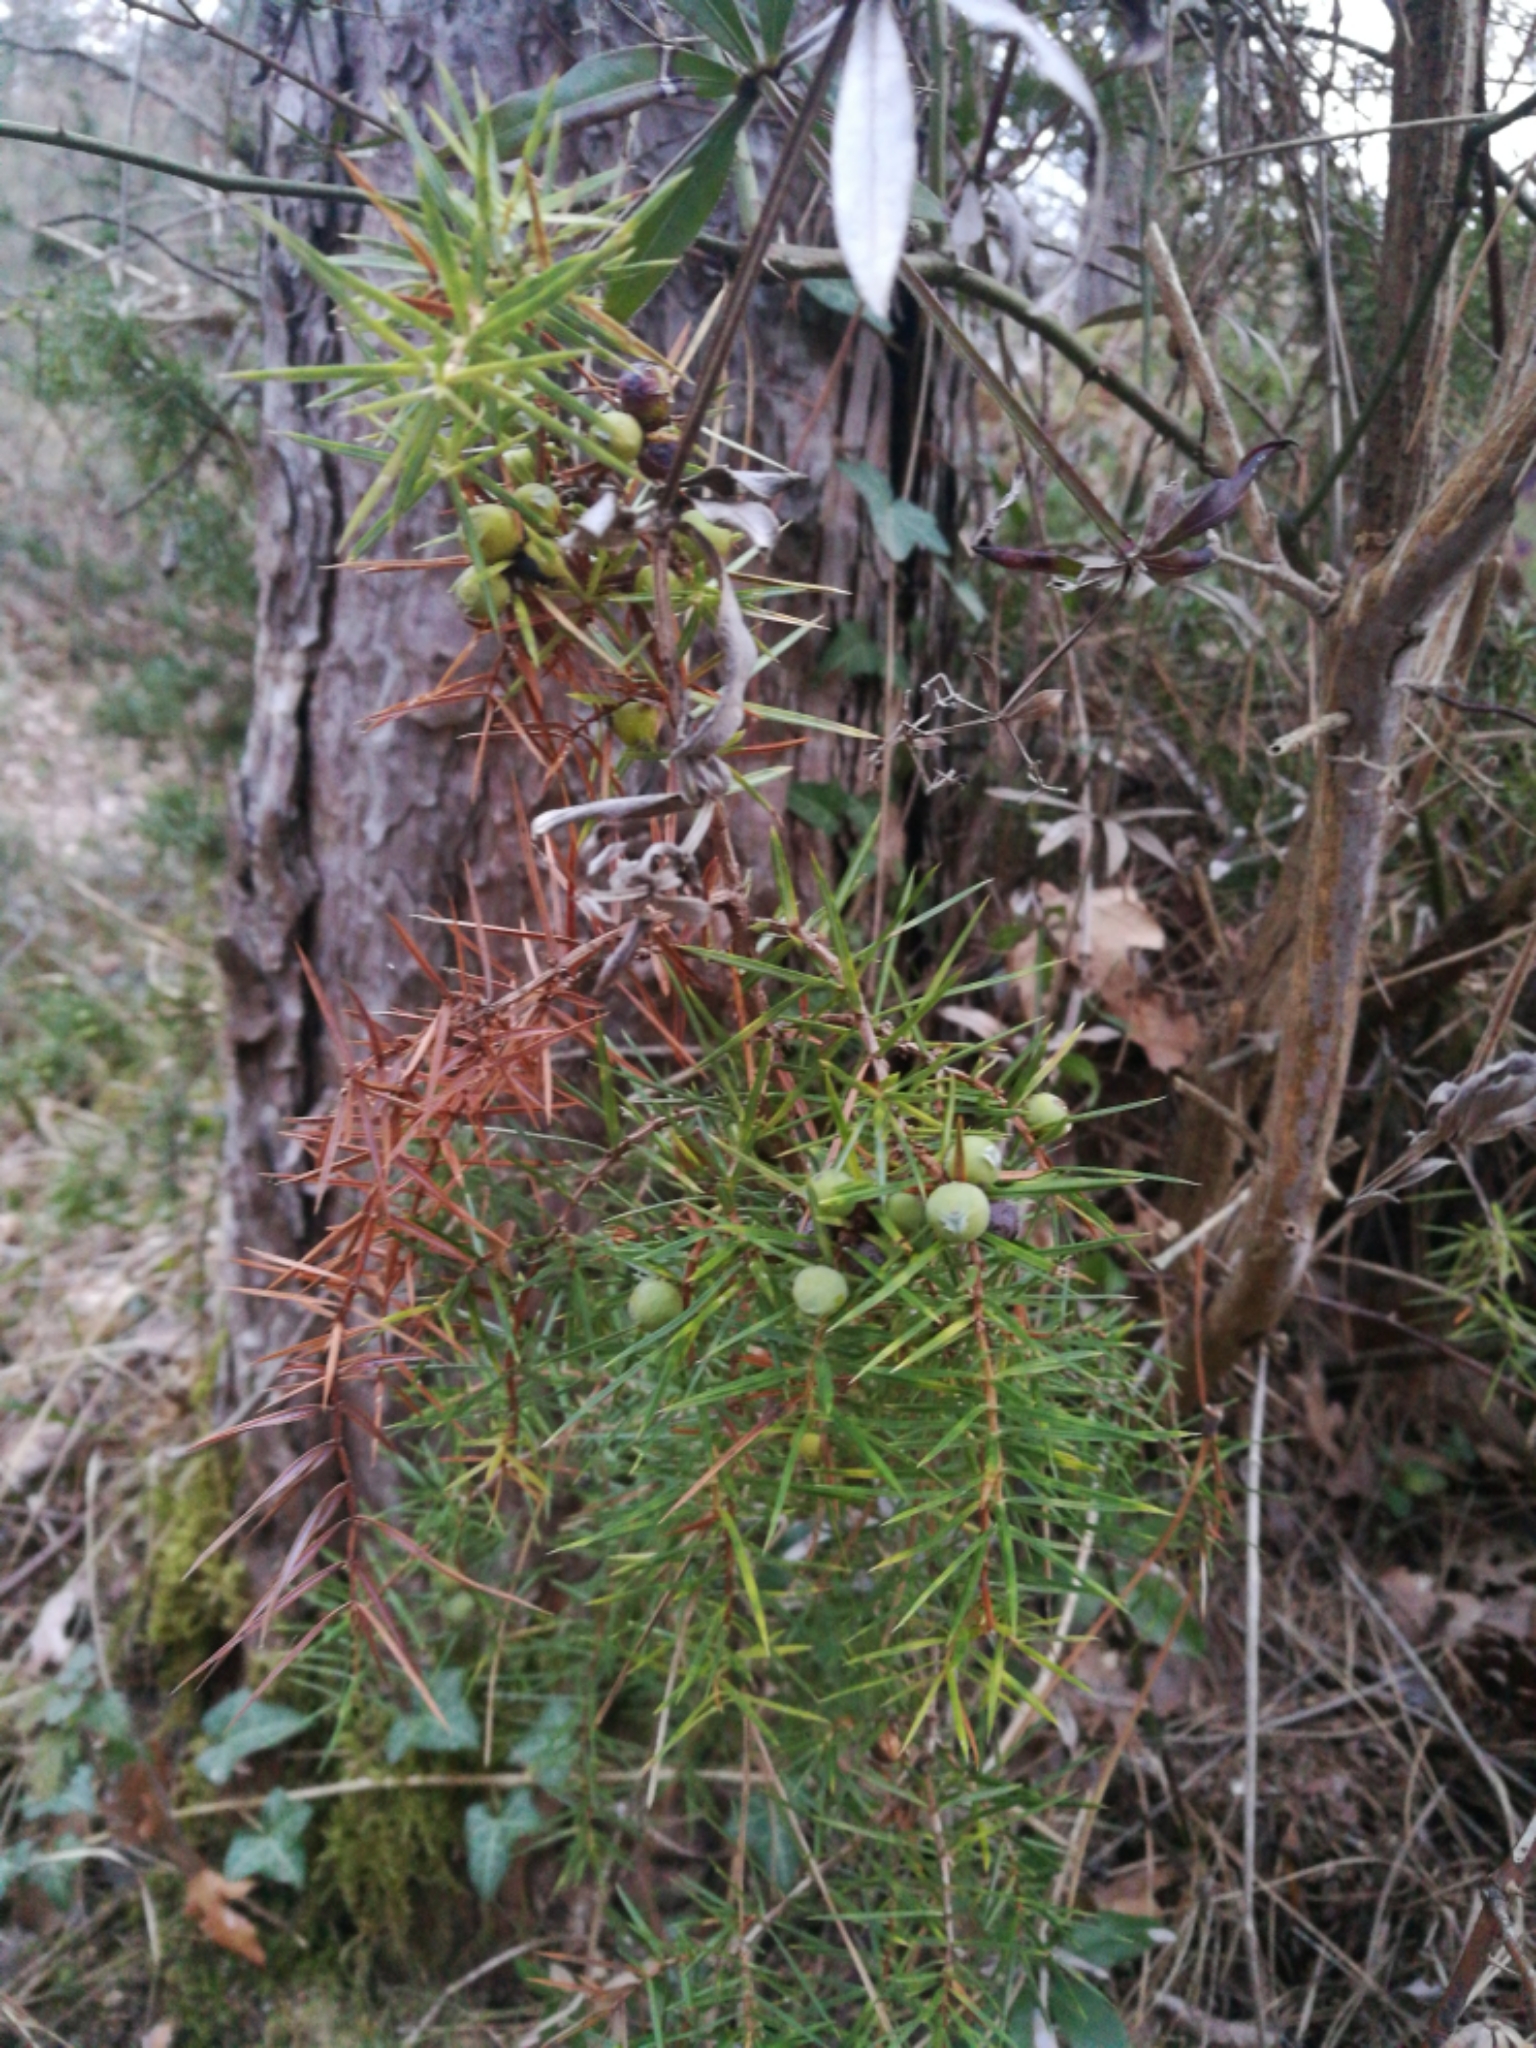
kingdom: Plantae
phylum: Tracheophyta
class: Pinopsida
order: Pinales
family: Cupressaceae
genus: Juniperus
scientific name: Juniperus communis
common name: Common juniper
